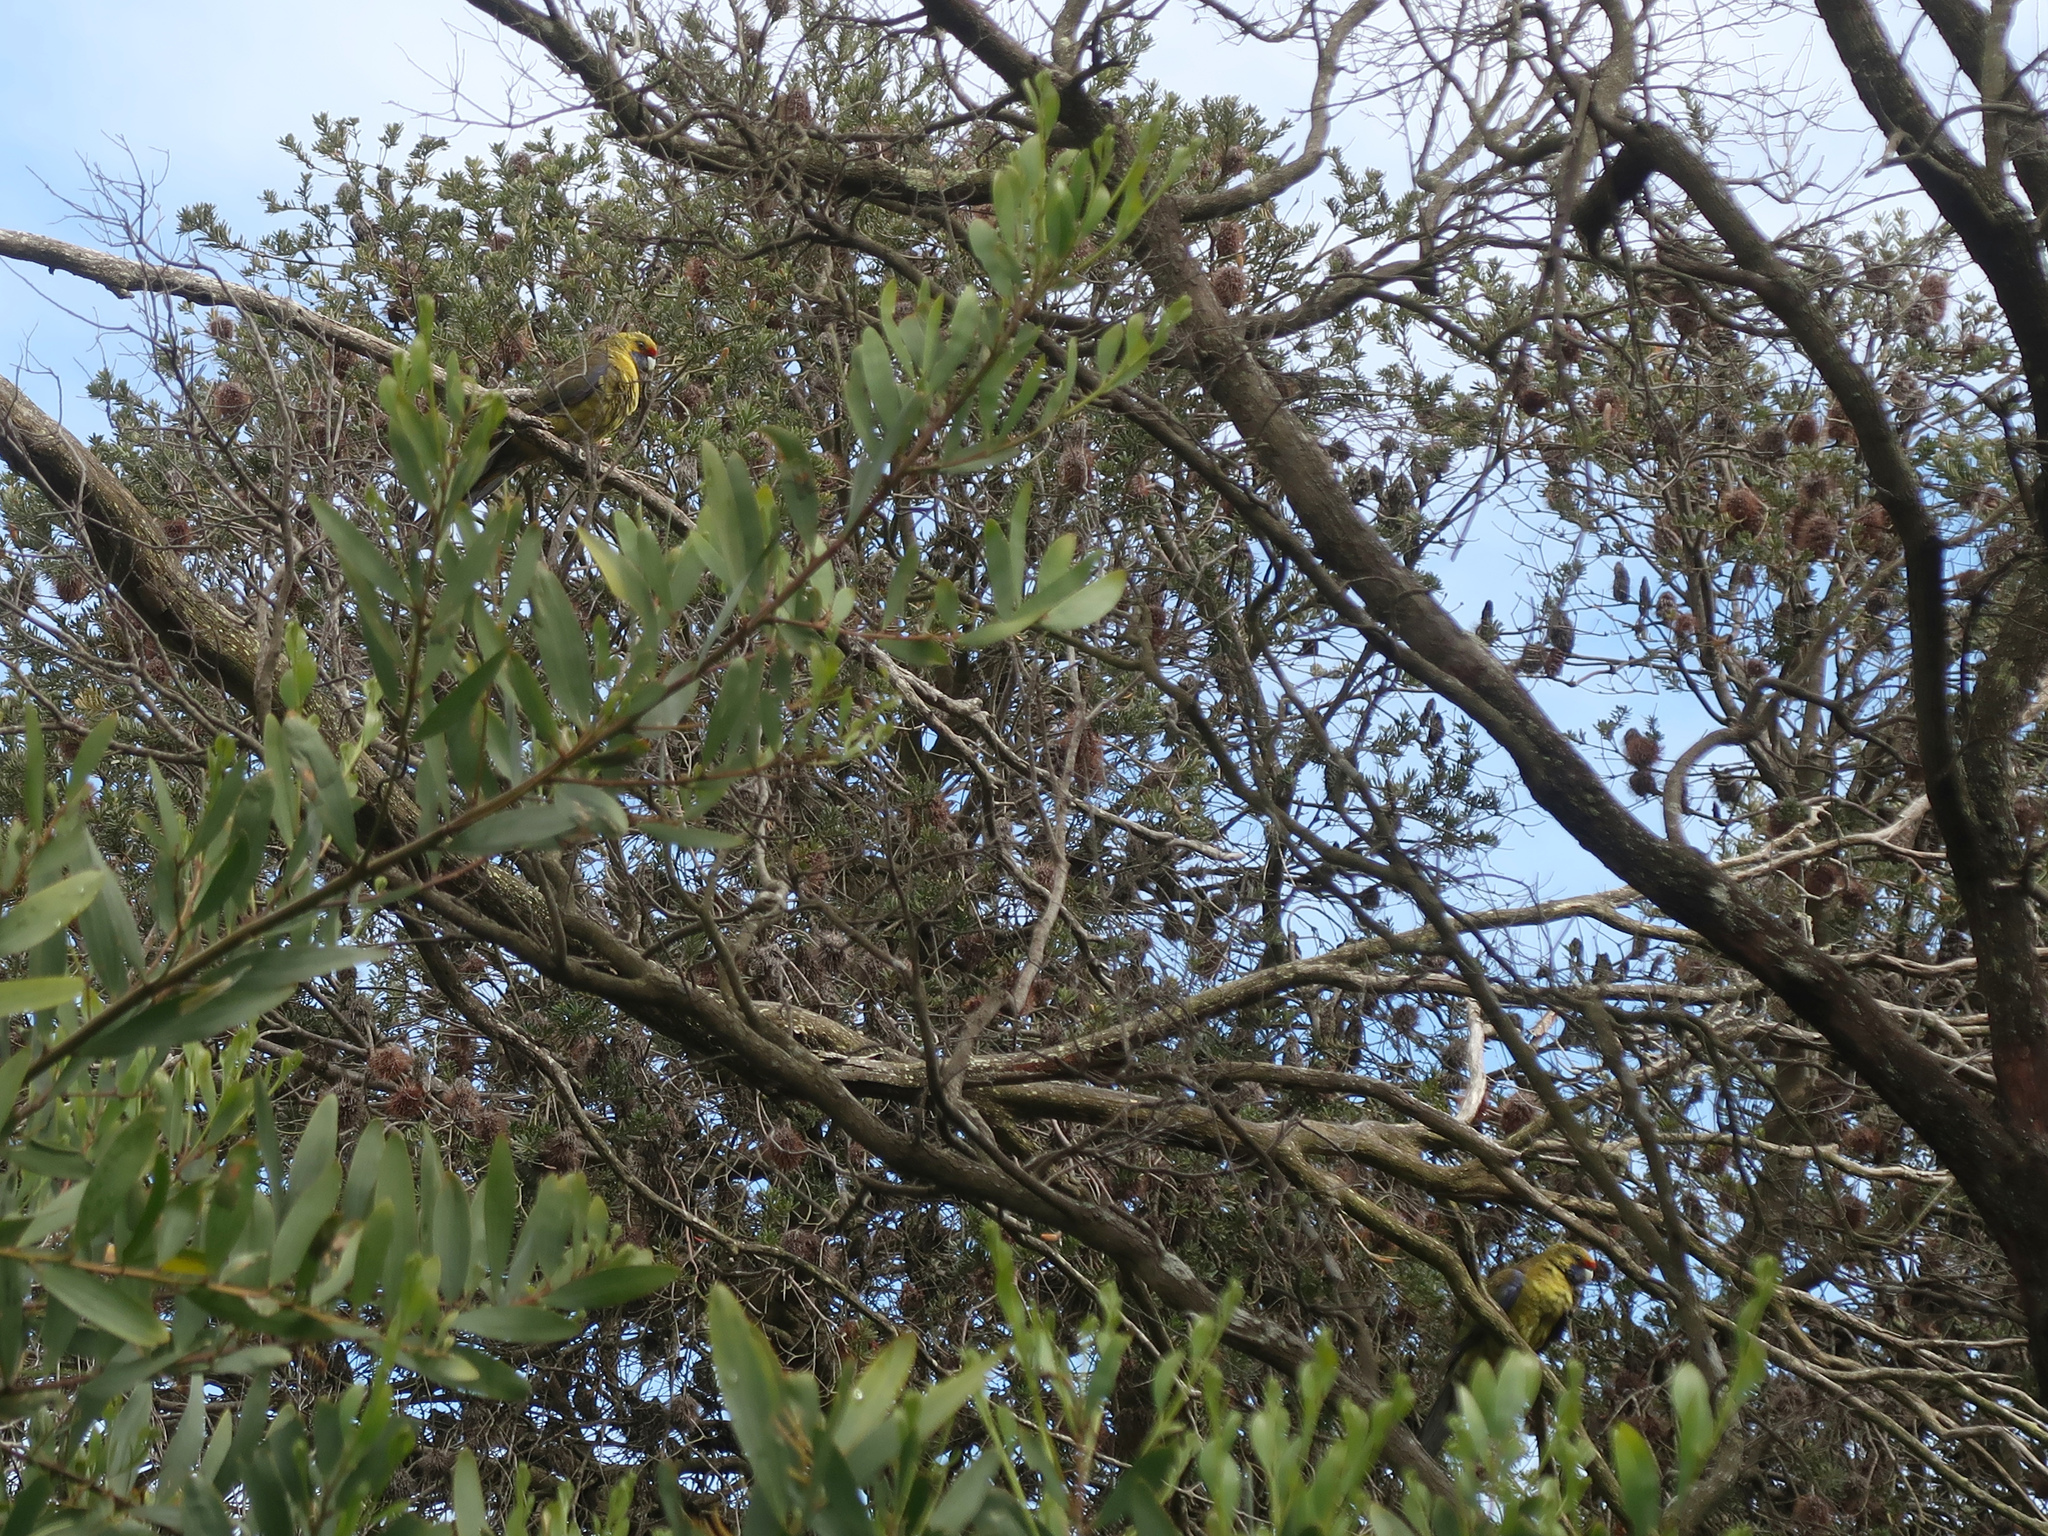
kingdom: Animalia
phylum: Chordata
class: Aves
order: Psittaciformes
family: Psittacidae
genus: Platycercus
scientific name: Platycercus caledonicus
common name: Green rosella
